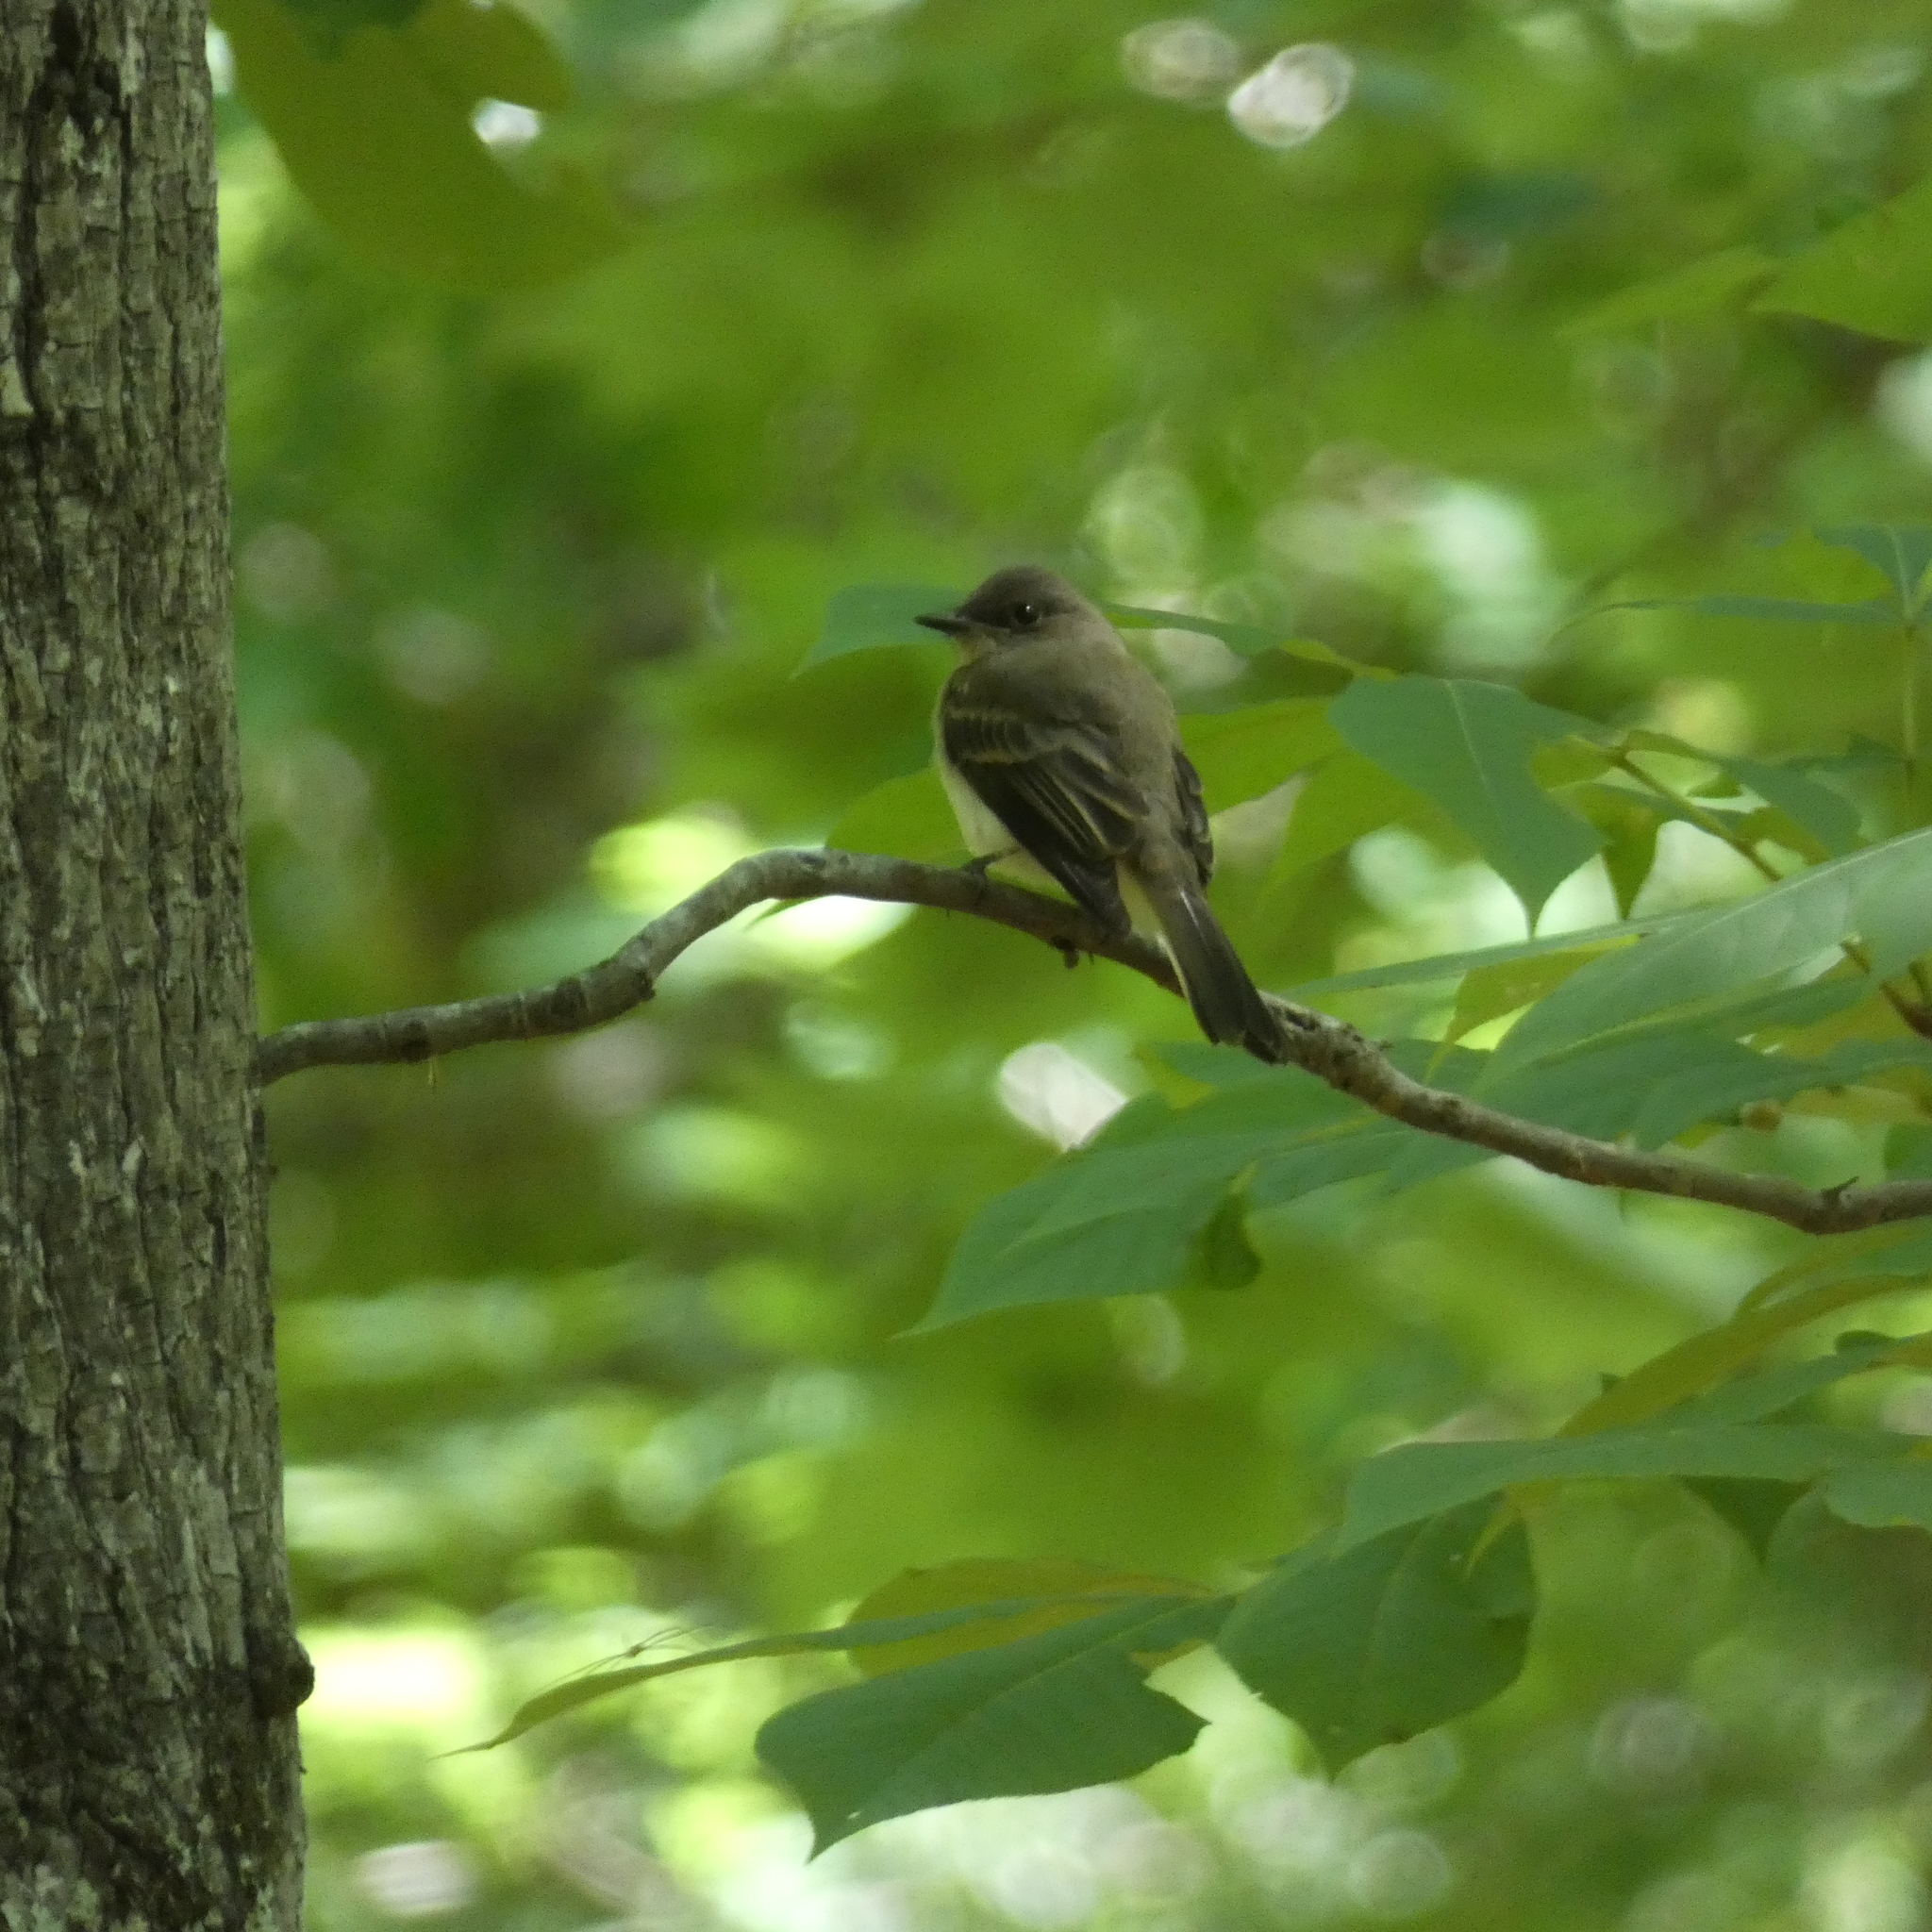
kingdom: Animalia
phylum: Chordata
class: Aves
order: Passeriformes
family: Tyrannidae
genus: Sayornis
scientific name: Sayornis phoebe
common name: Eastern phoebe
